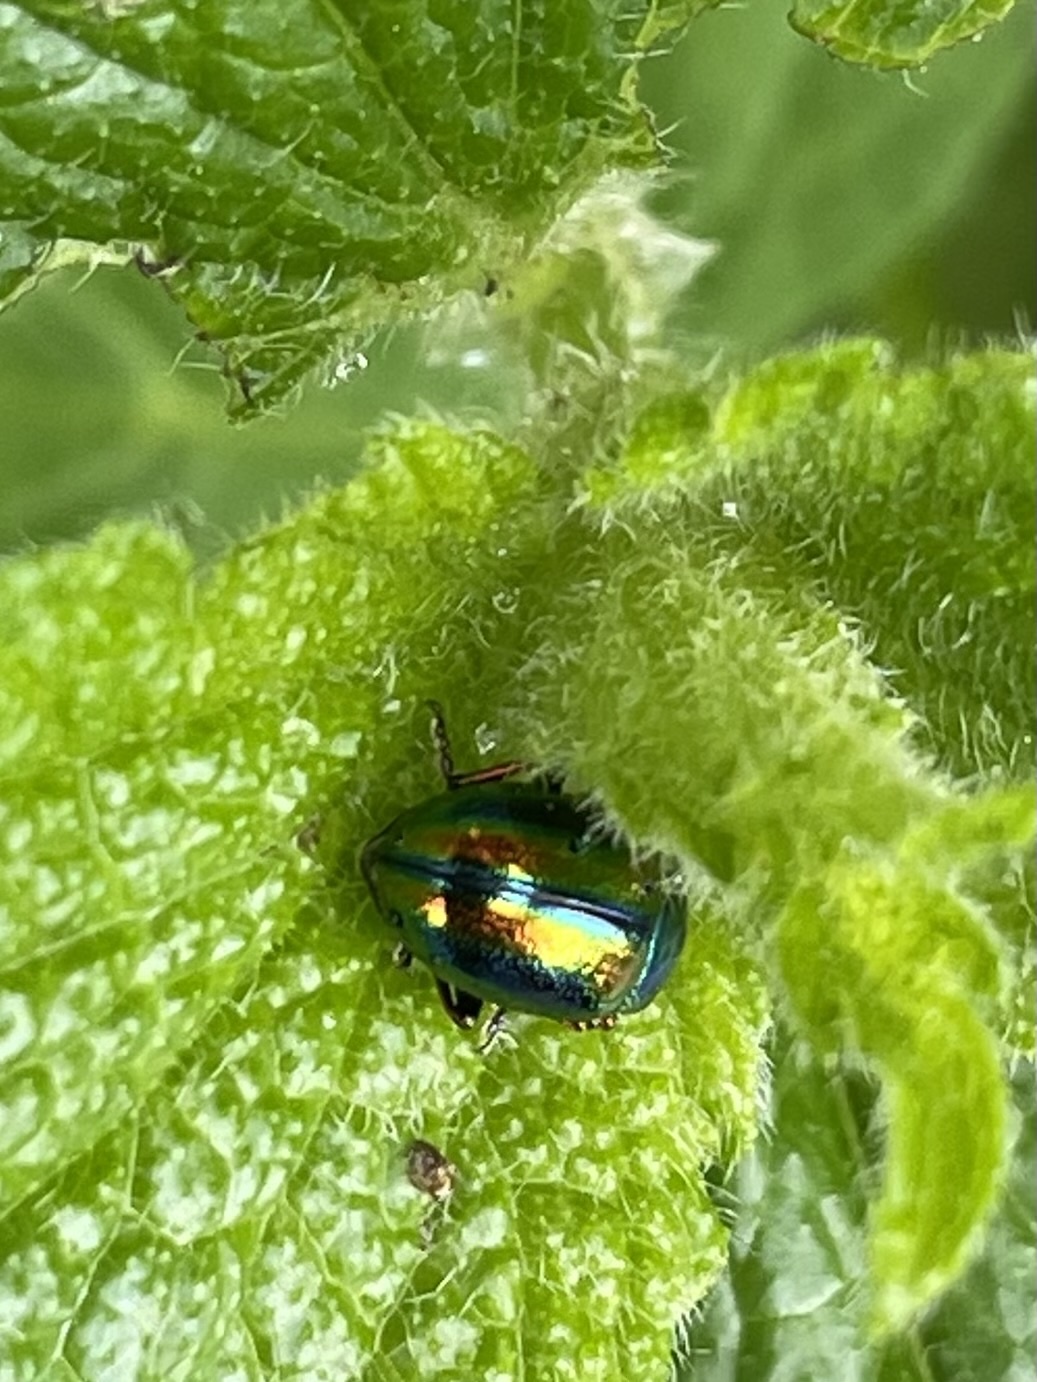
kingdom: Animalia
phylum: Arthropoda
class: Insecta
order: Coleoptera
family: Chrysomelidae
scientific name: Chrysomelidae
